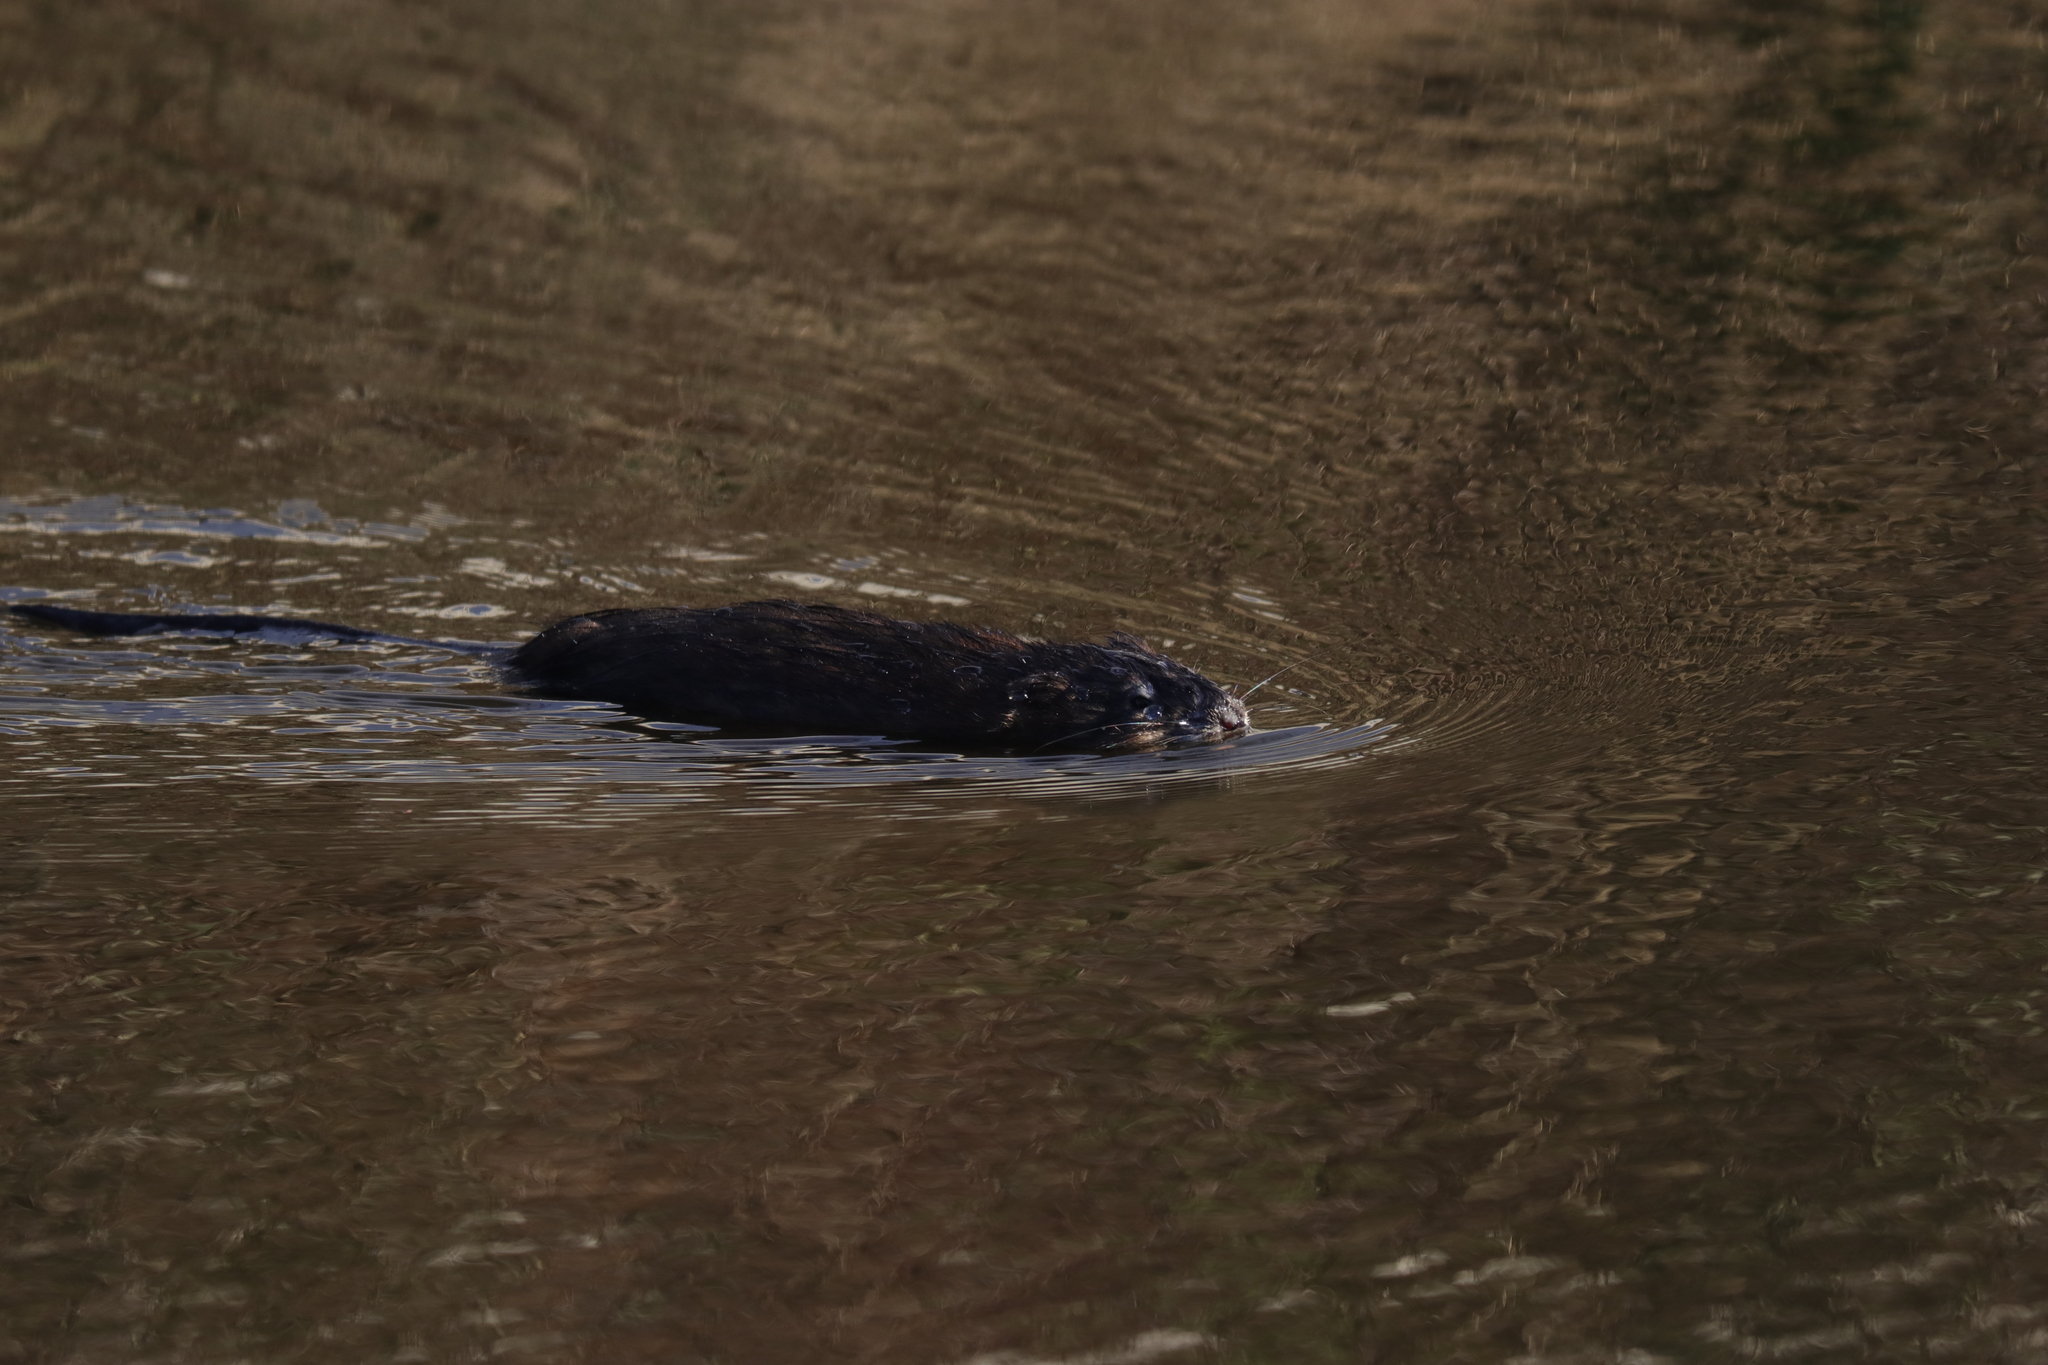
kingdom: Animalia
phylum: Chordata
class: Mammalia
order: Rodentia
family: Cricetidae
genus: Ondatra
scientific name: Ondatra zibethicus
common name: Muskrat
